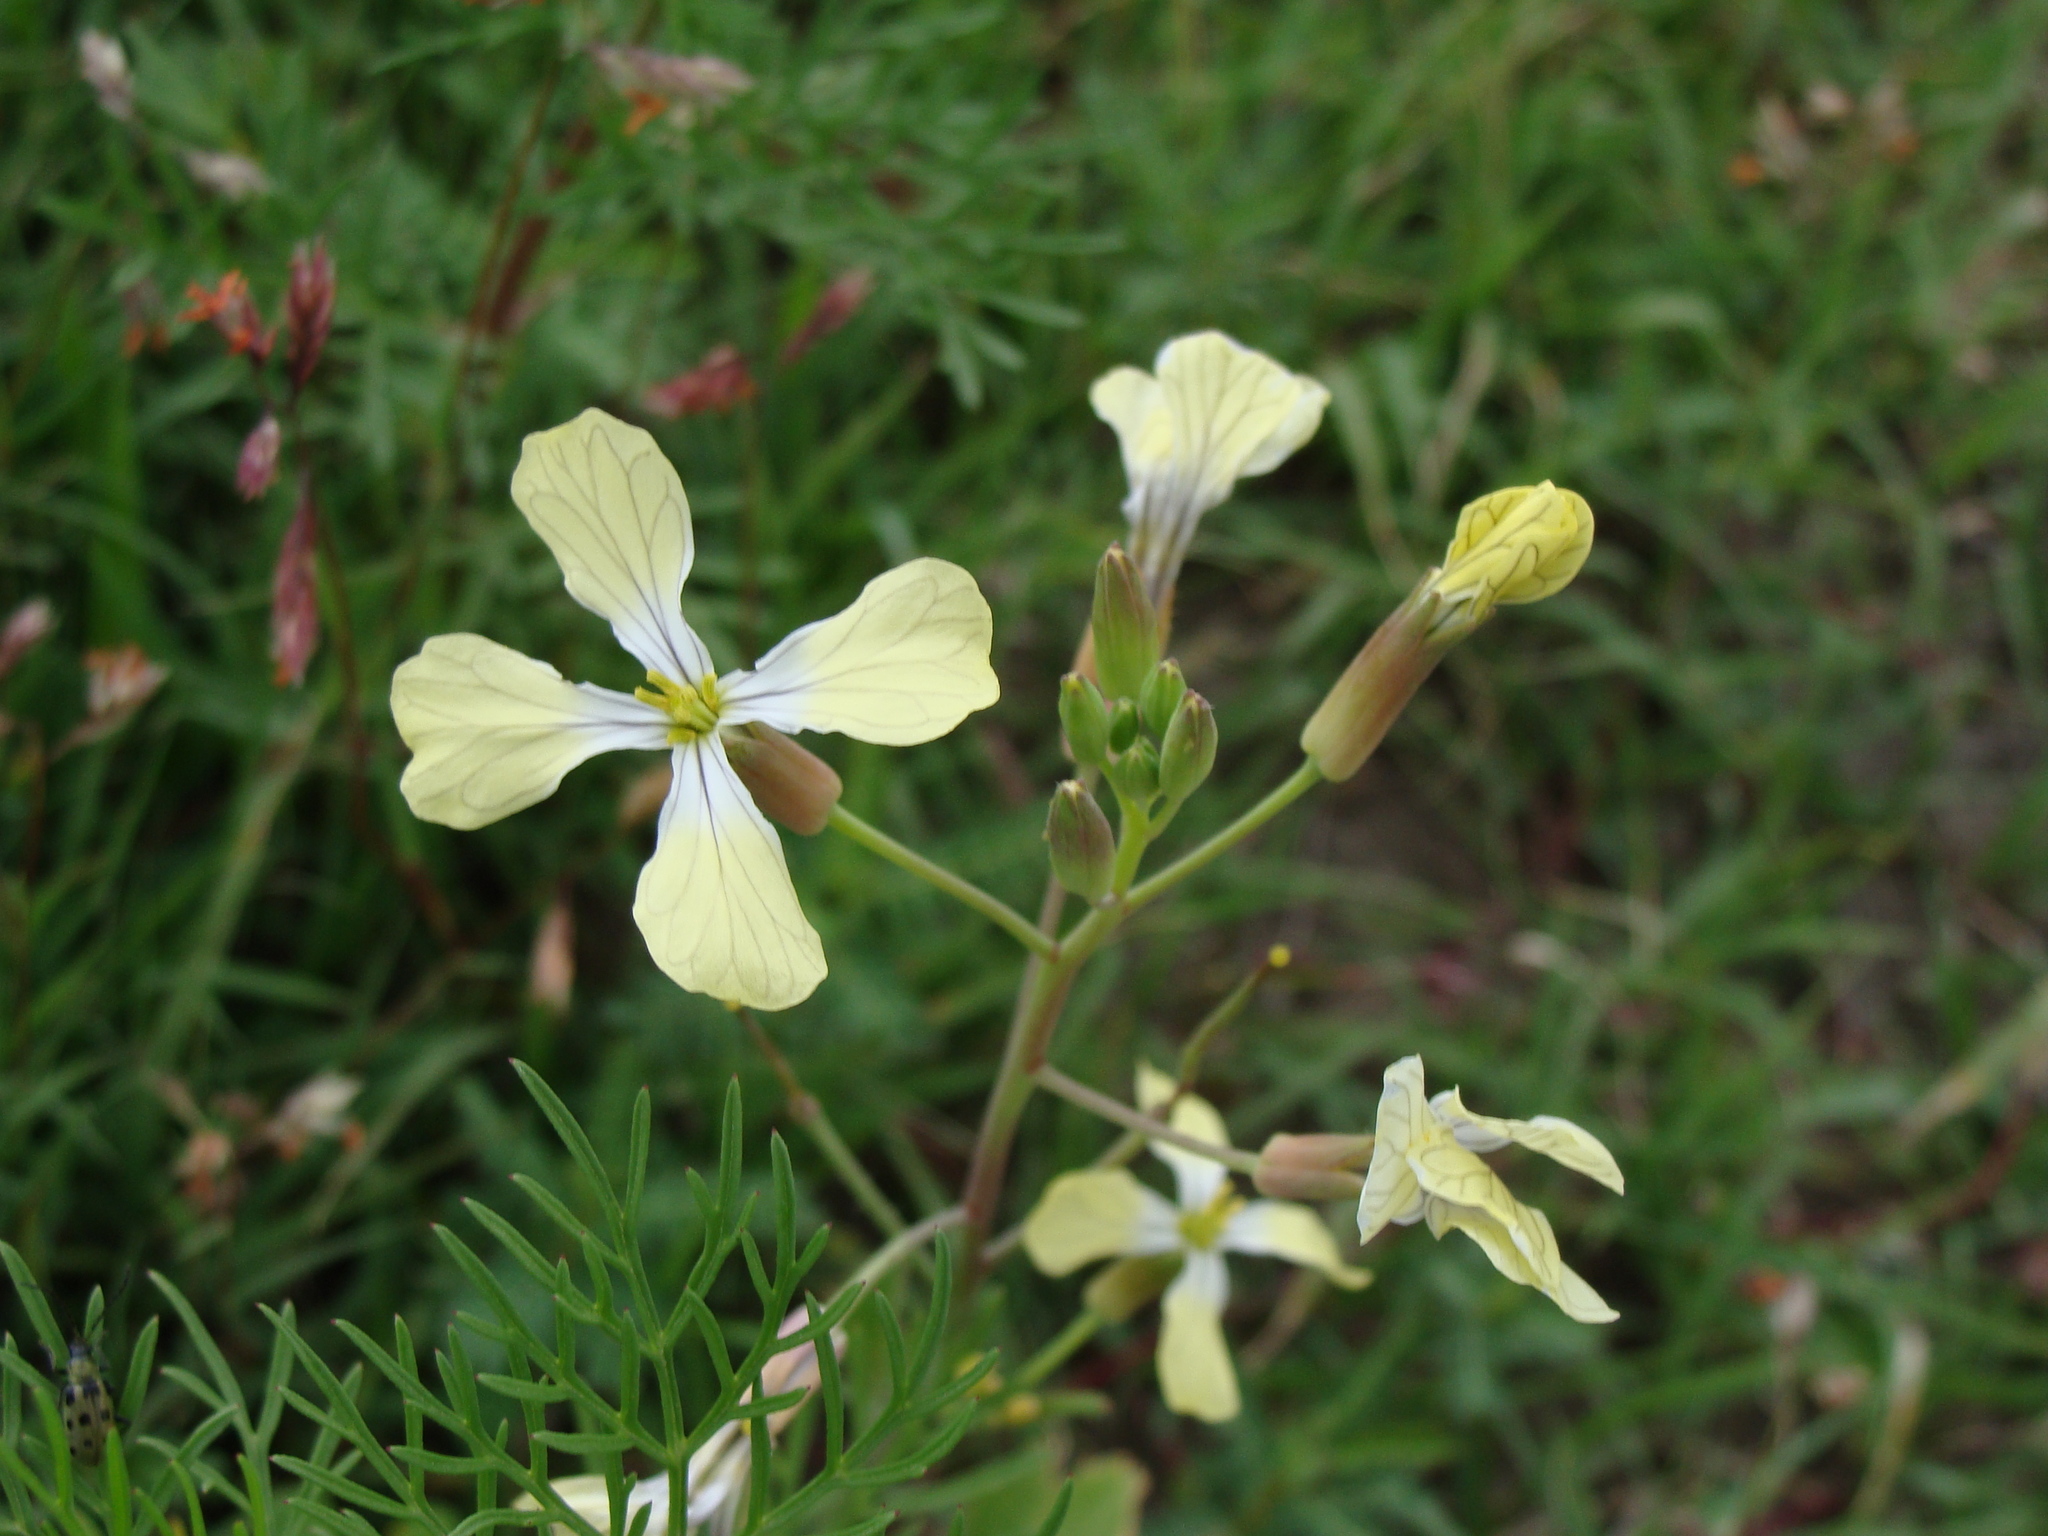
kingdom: Plantae
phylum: Tracheophyta
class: Magnoliopsida
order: Brassicales
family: Brassicaceae
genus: Raphanus
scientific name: Raphanus raphanistrum
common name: Wild radish
